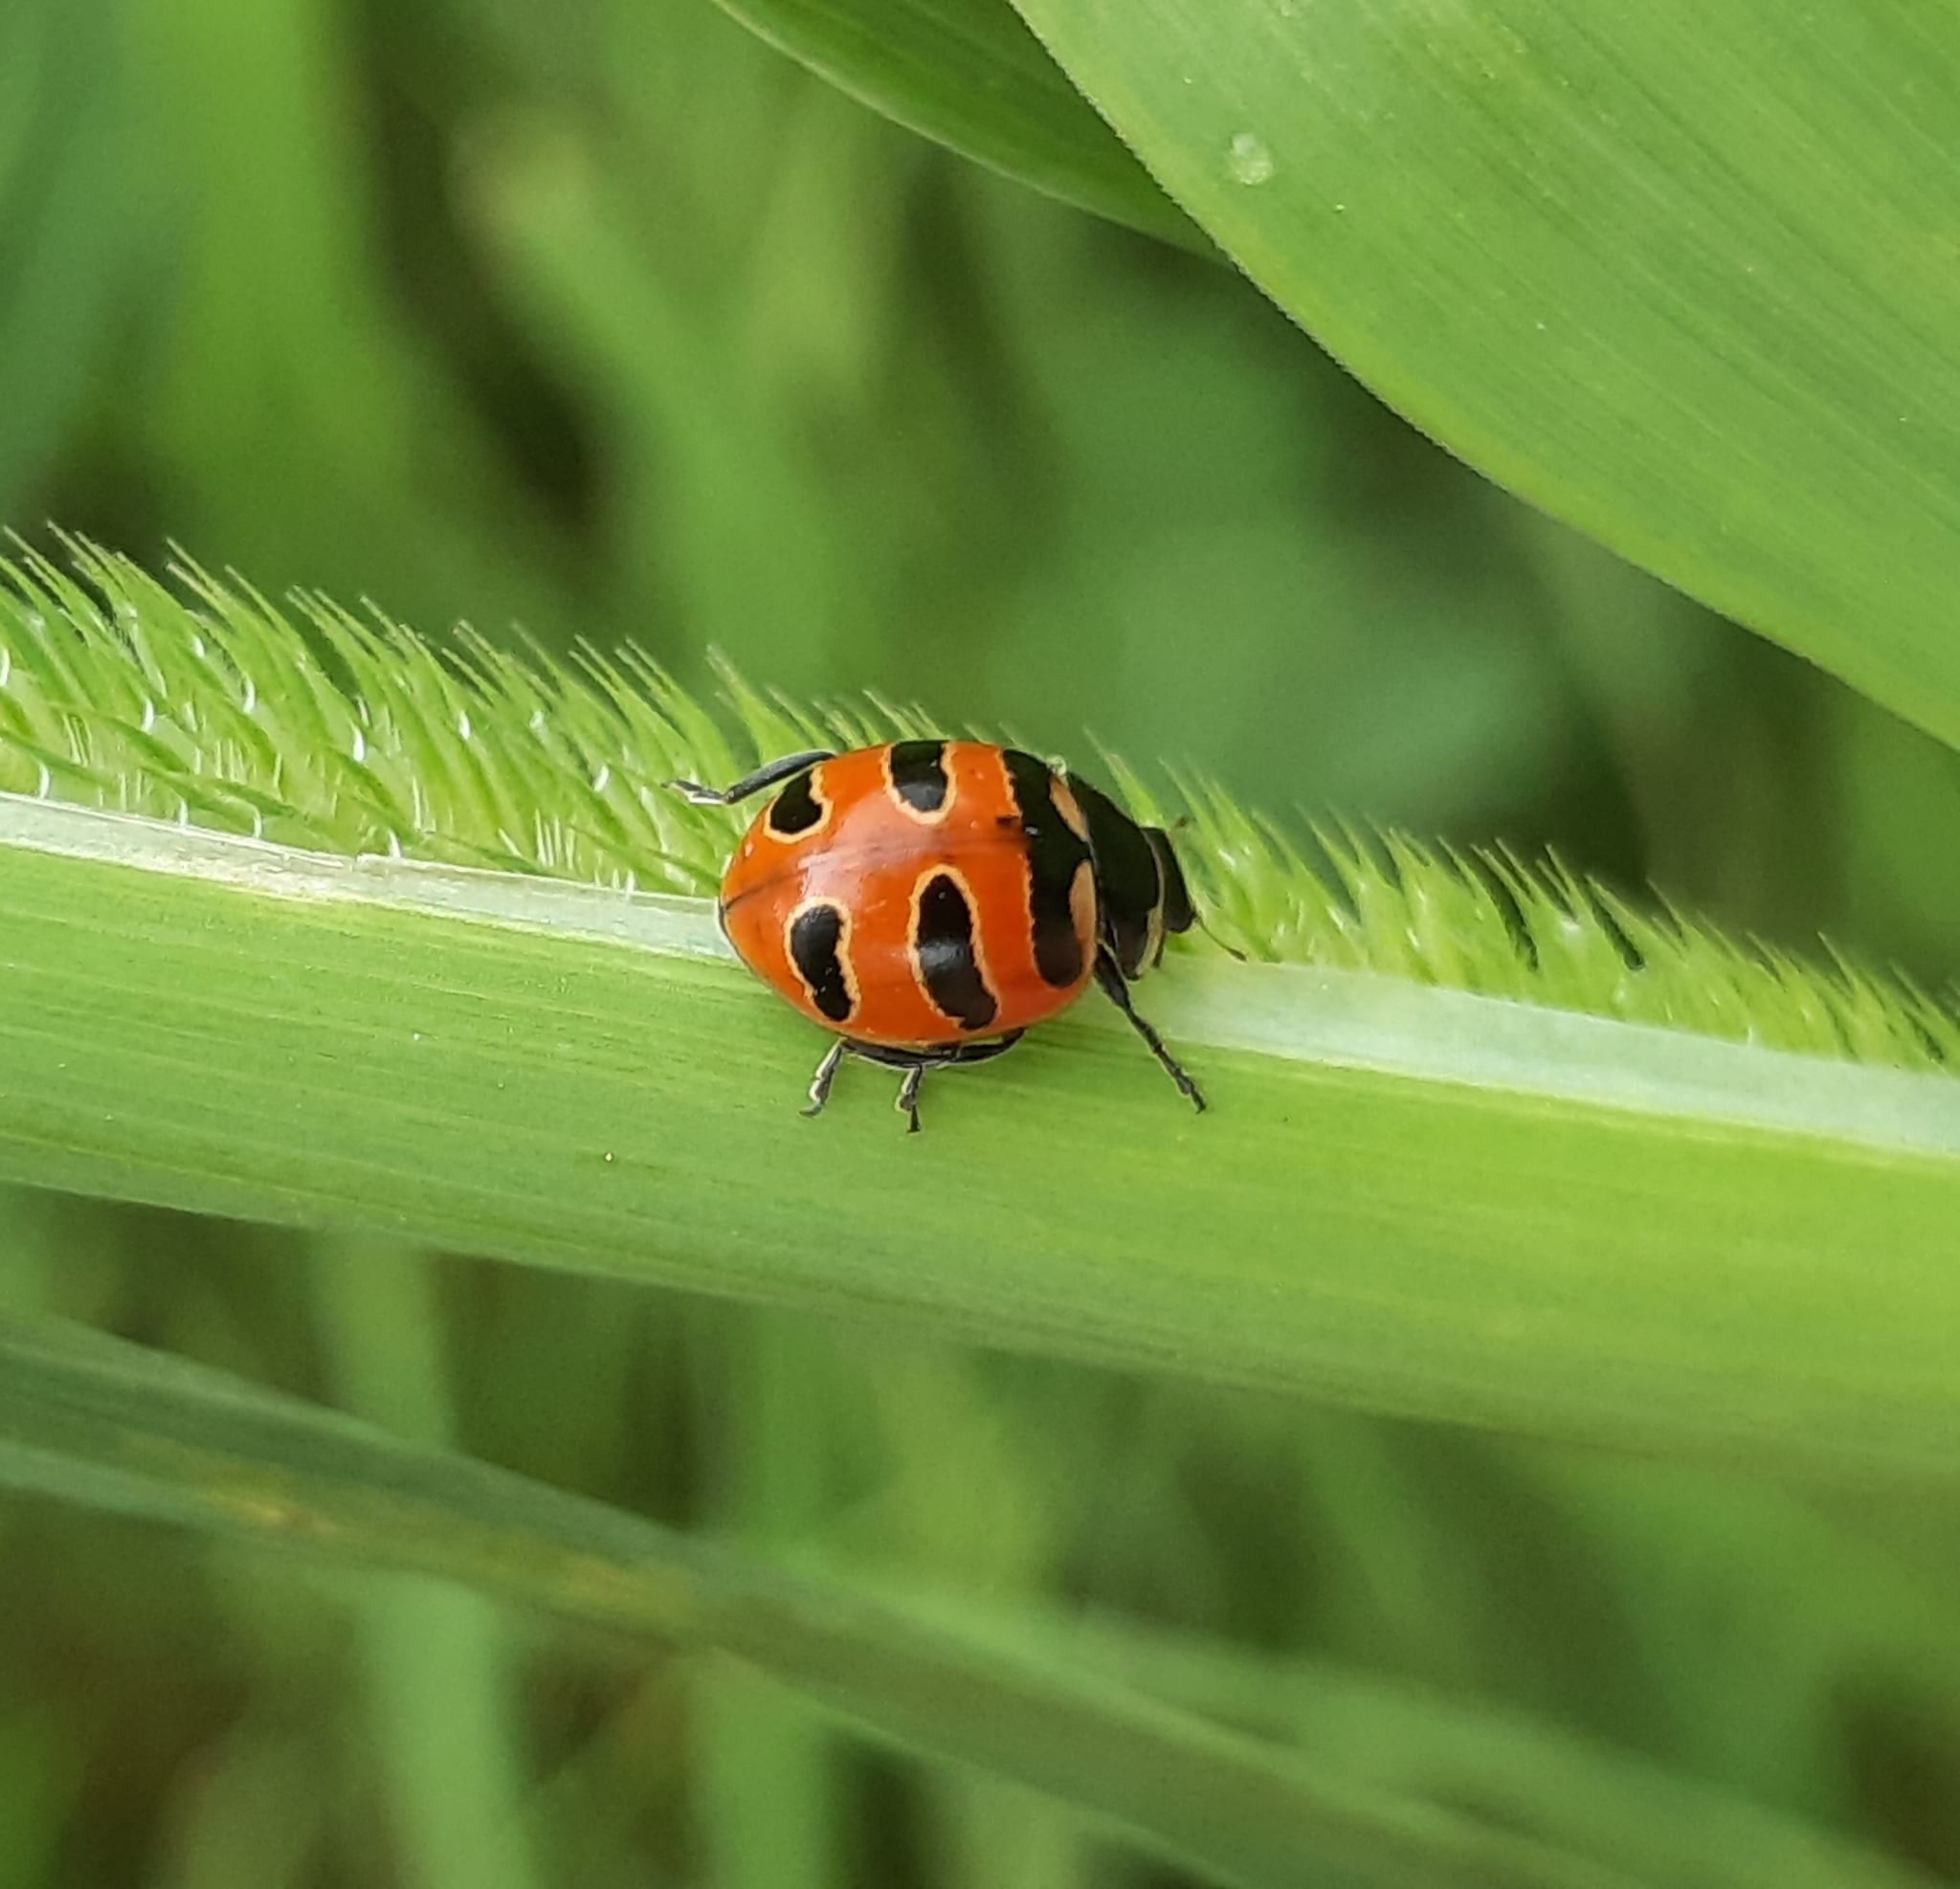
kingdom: Animalia
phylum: Arthropoda
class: Insecta
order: Coleoptera
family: Coccinellidae
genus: Coccinella
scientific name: Coccinella trifasciata
